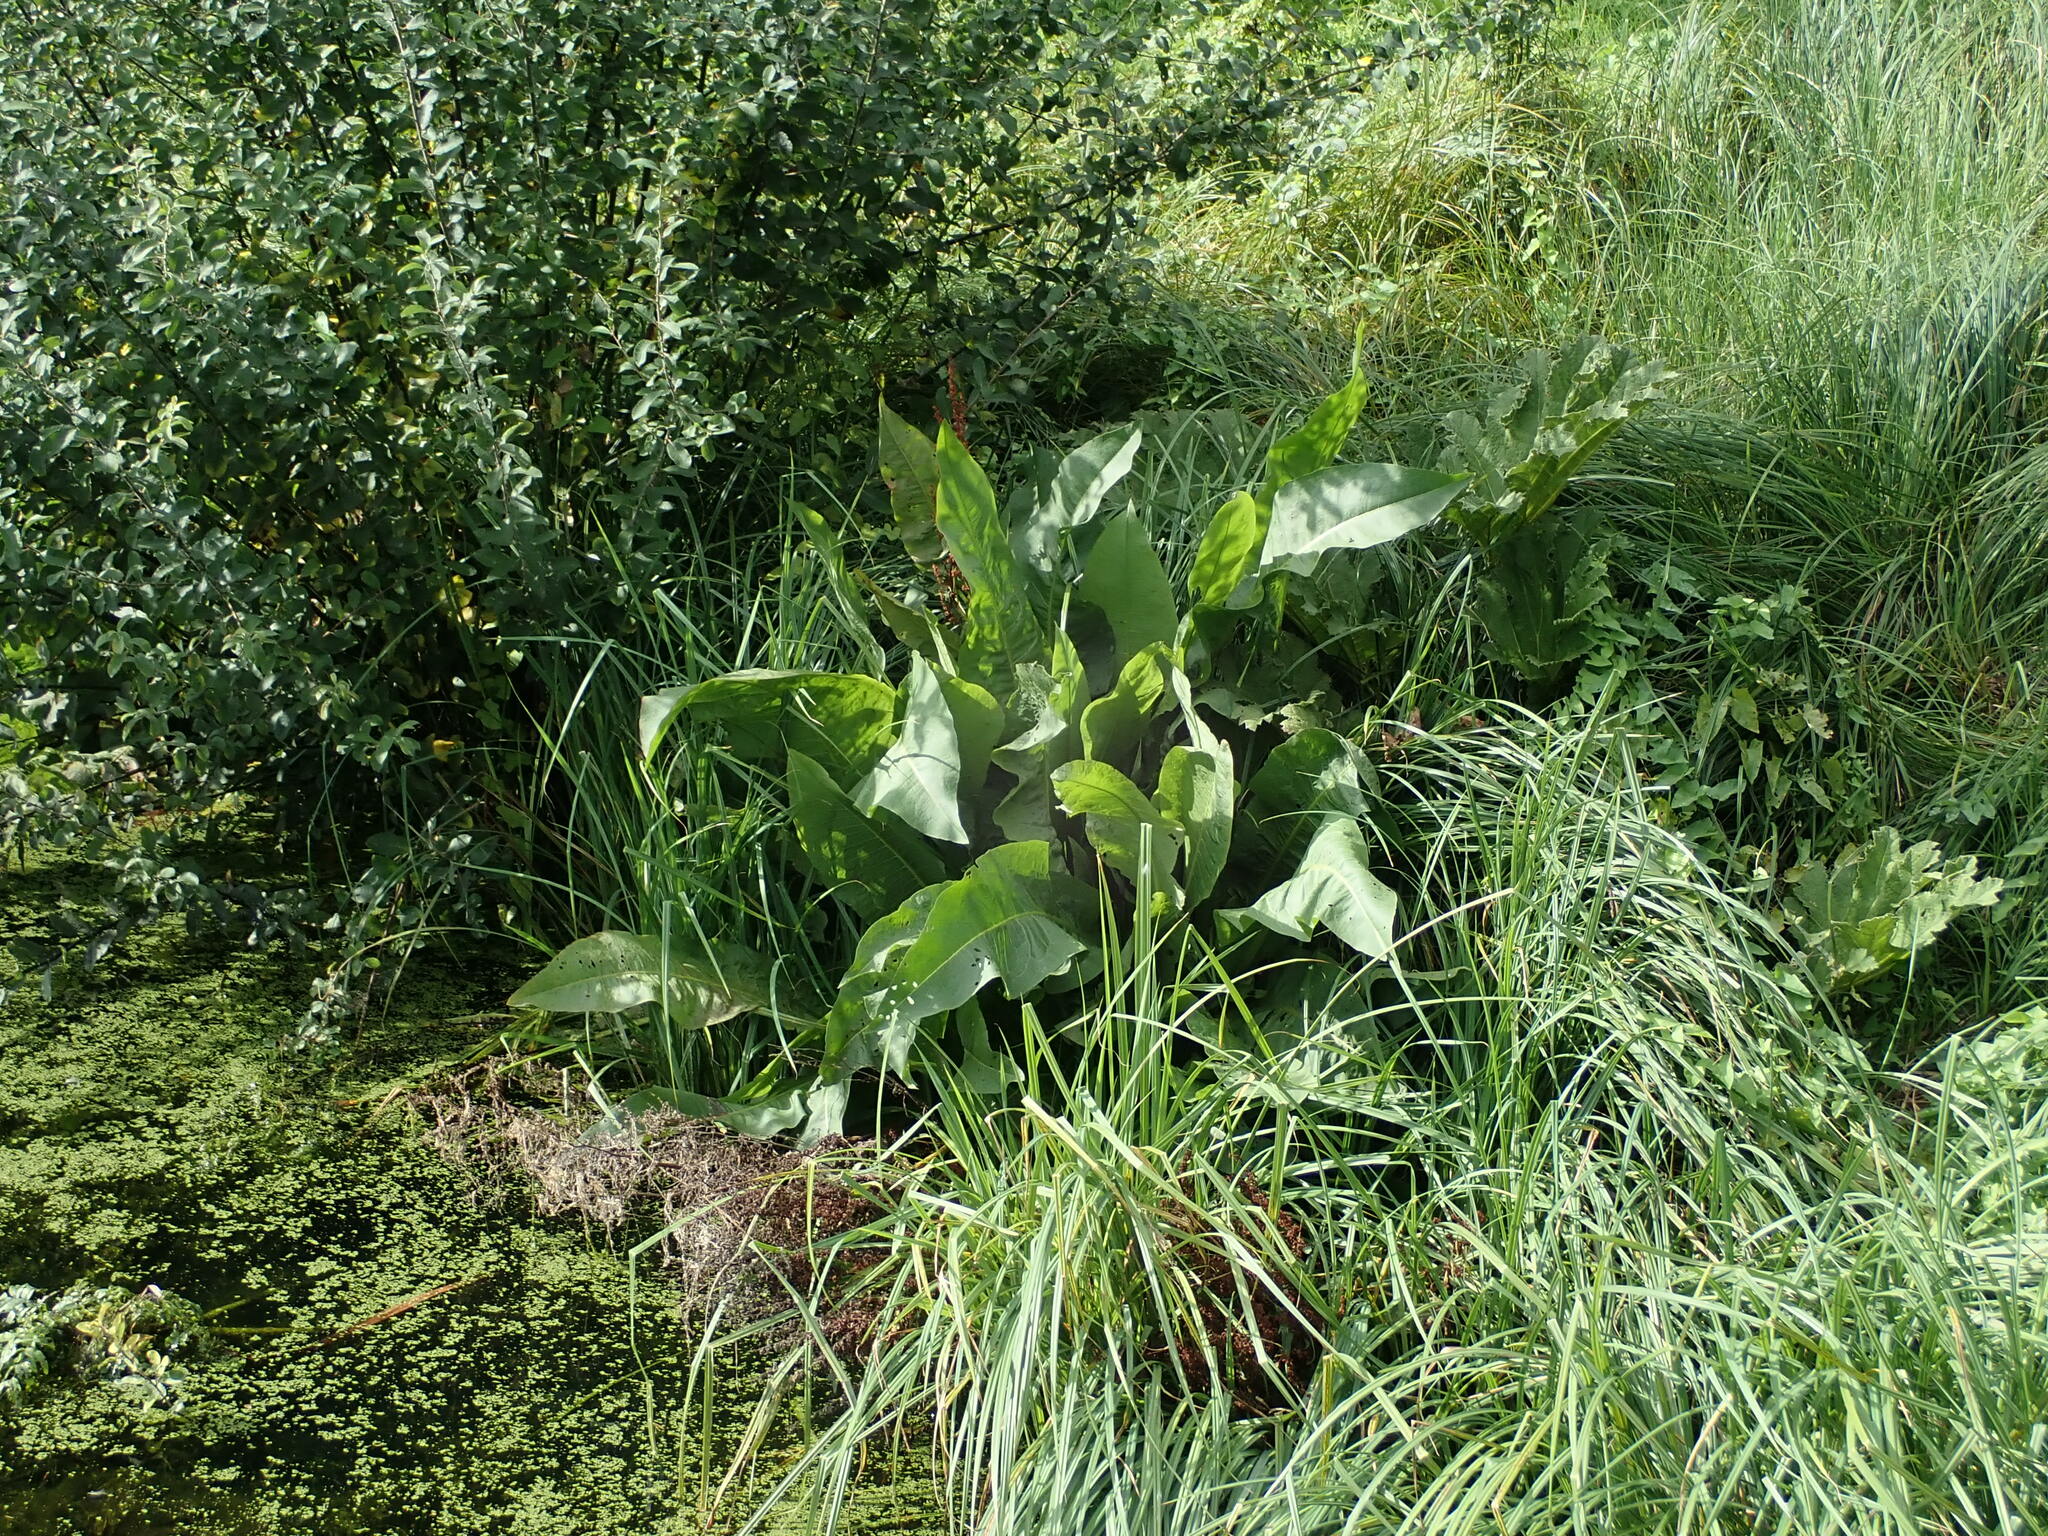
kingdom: Plantae
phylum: Tracheophyta
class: Magnoliopsida
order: Caryophyllales
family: Polygonaceae
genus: Rumex
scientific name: Rumex hydrolapathum
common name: Water dock
